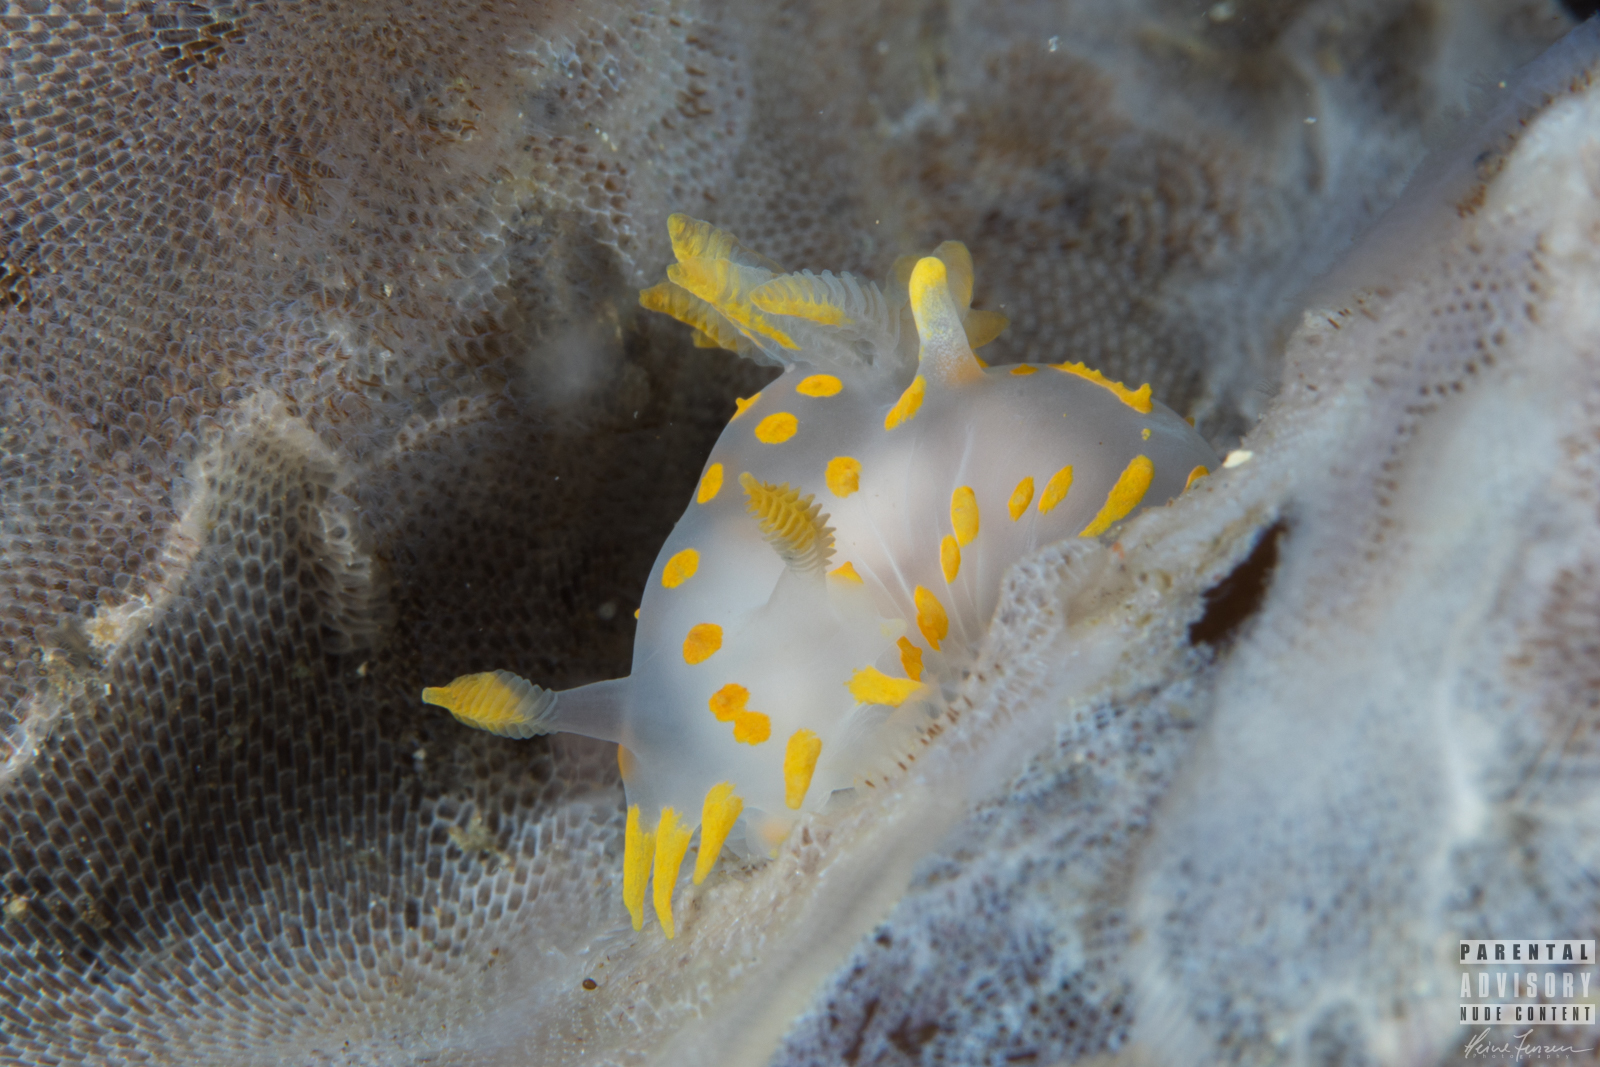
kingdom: Animalia
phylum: Mollusca
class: Gastropoda
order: Nudibranchia
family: Polyceridae
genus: Polycera
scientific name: Polycera quadrilineata
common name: Four-striped polycera
